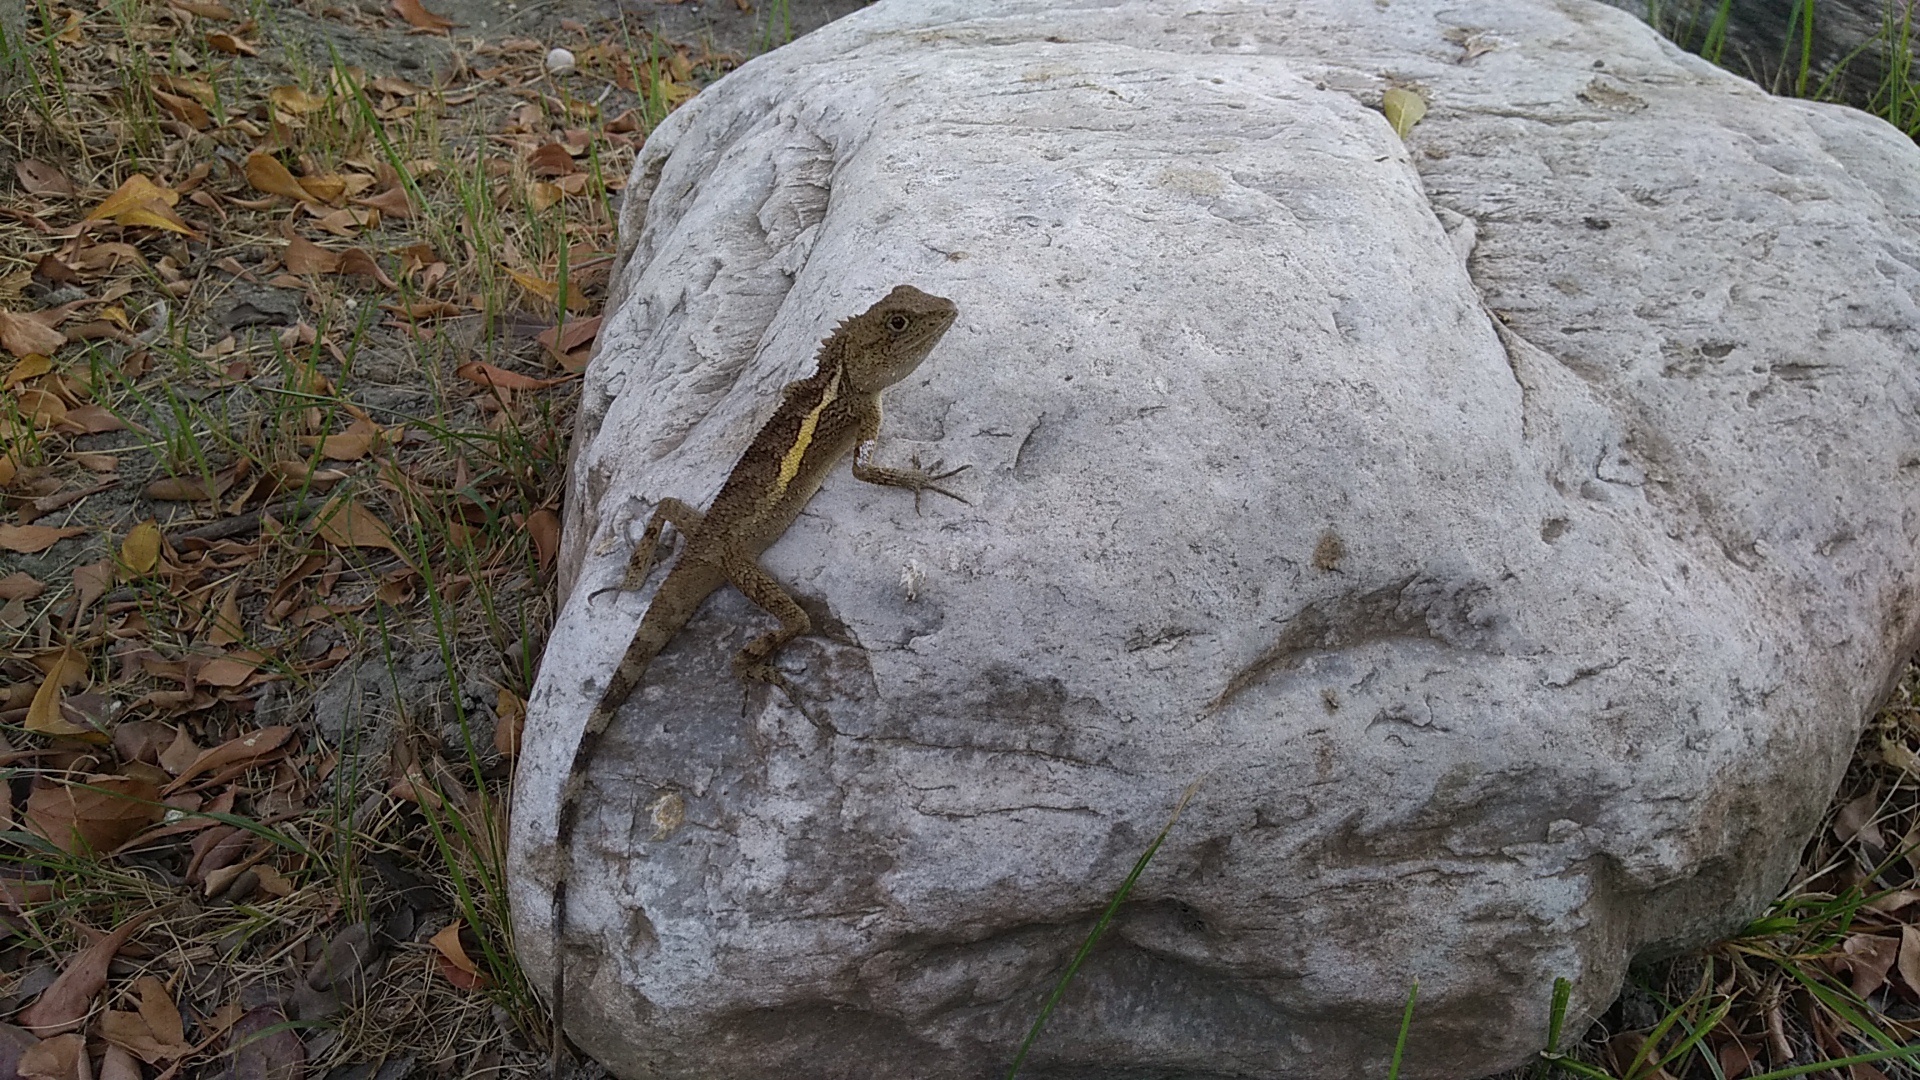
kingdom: Animalia
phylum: Chordata
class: Squamata
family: Agamidae
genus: Diploderma
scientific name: Diploderma swinhonis
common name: Taiwan japalure
